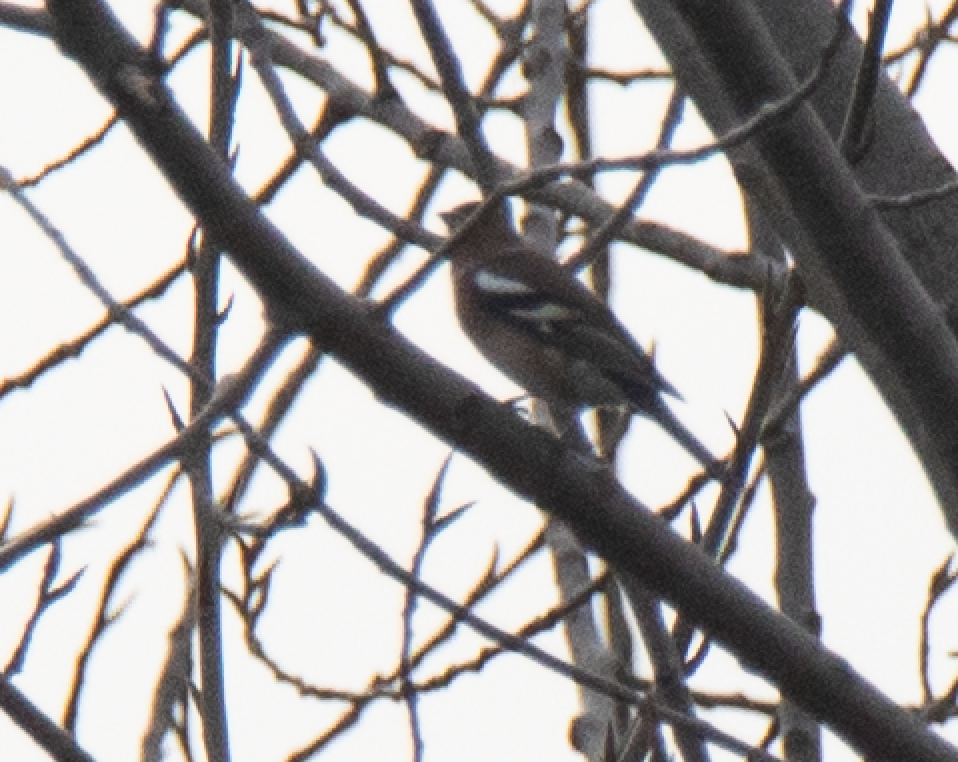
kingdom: Animalia
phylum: Chordata
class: Aves
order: Passeriformes
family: Fringillidae
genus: Fringilla
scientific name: Fringilla coelebs
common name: Common chaffinch
